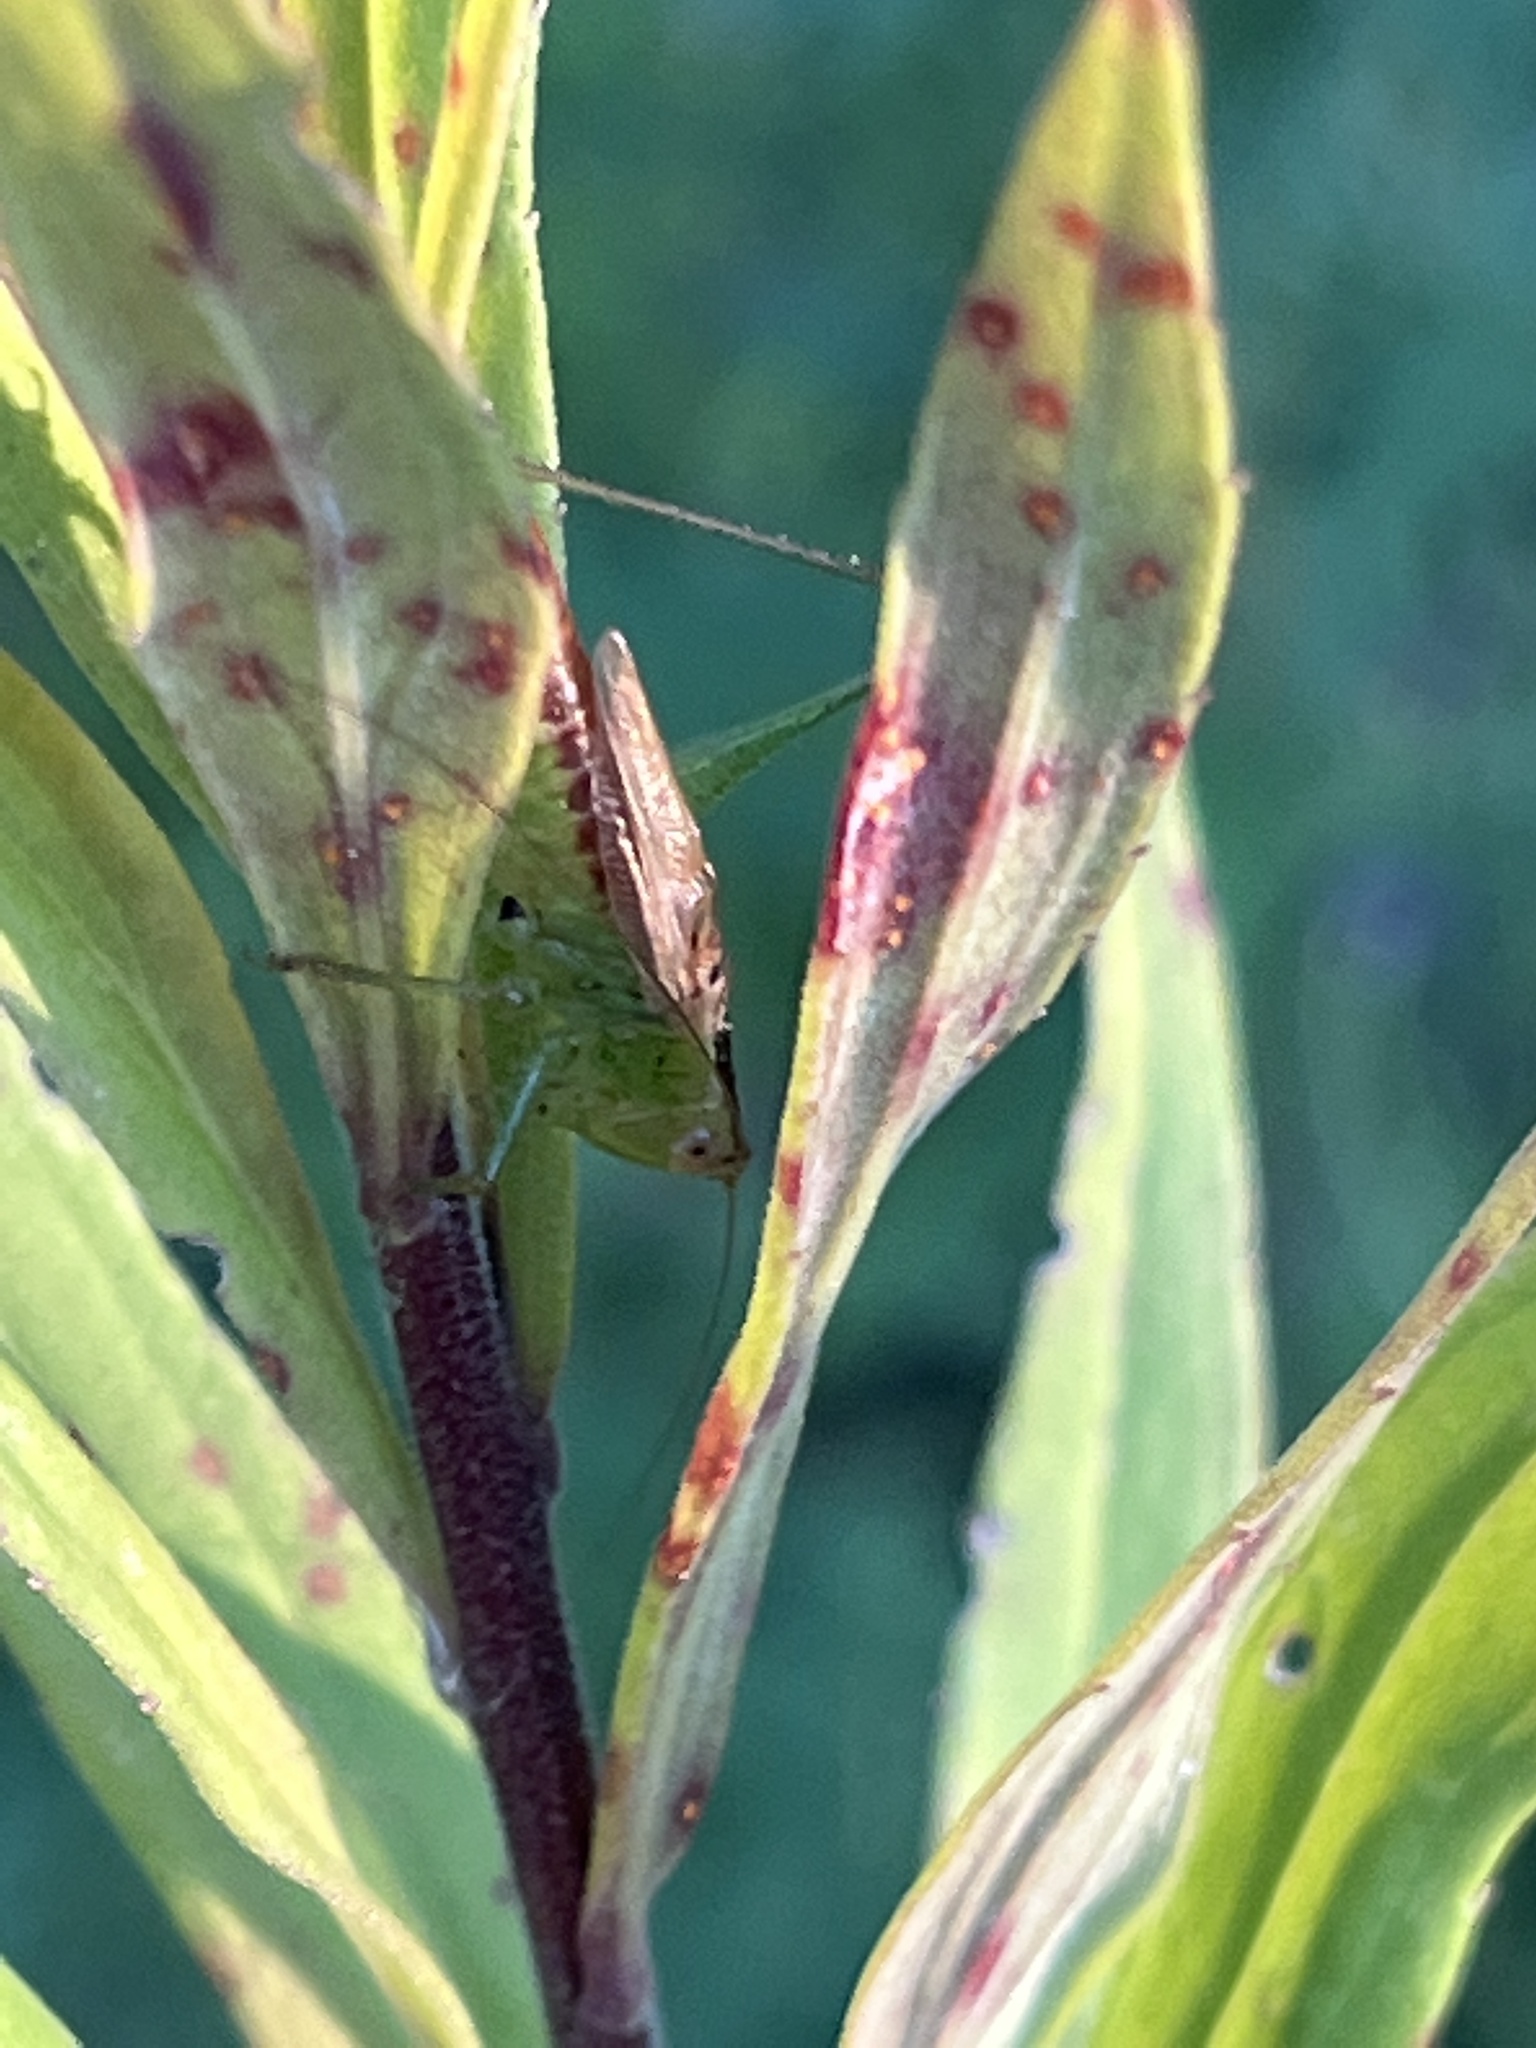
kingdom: Animalia
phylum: Arthropoda
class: Insecta
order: Orthoptera
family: Tettigoniidae
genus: Conocephalus
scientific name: Conocephalus brevipennis
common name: Short-winged meadow katydid
